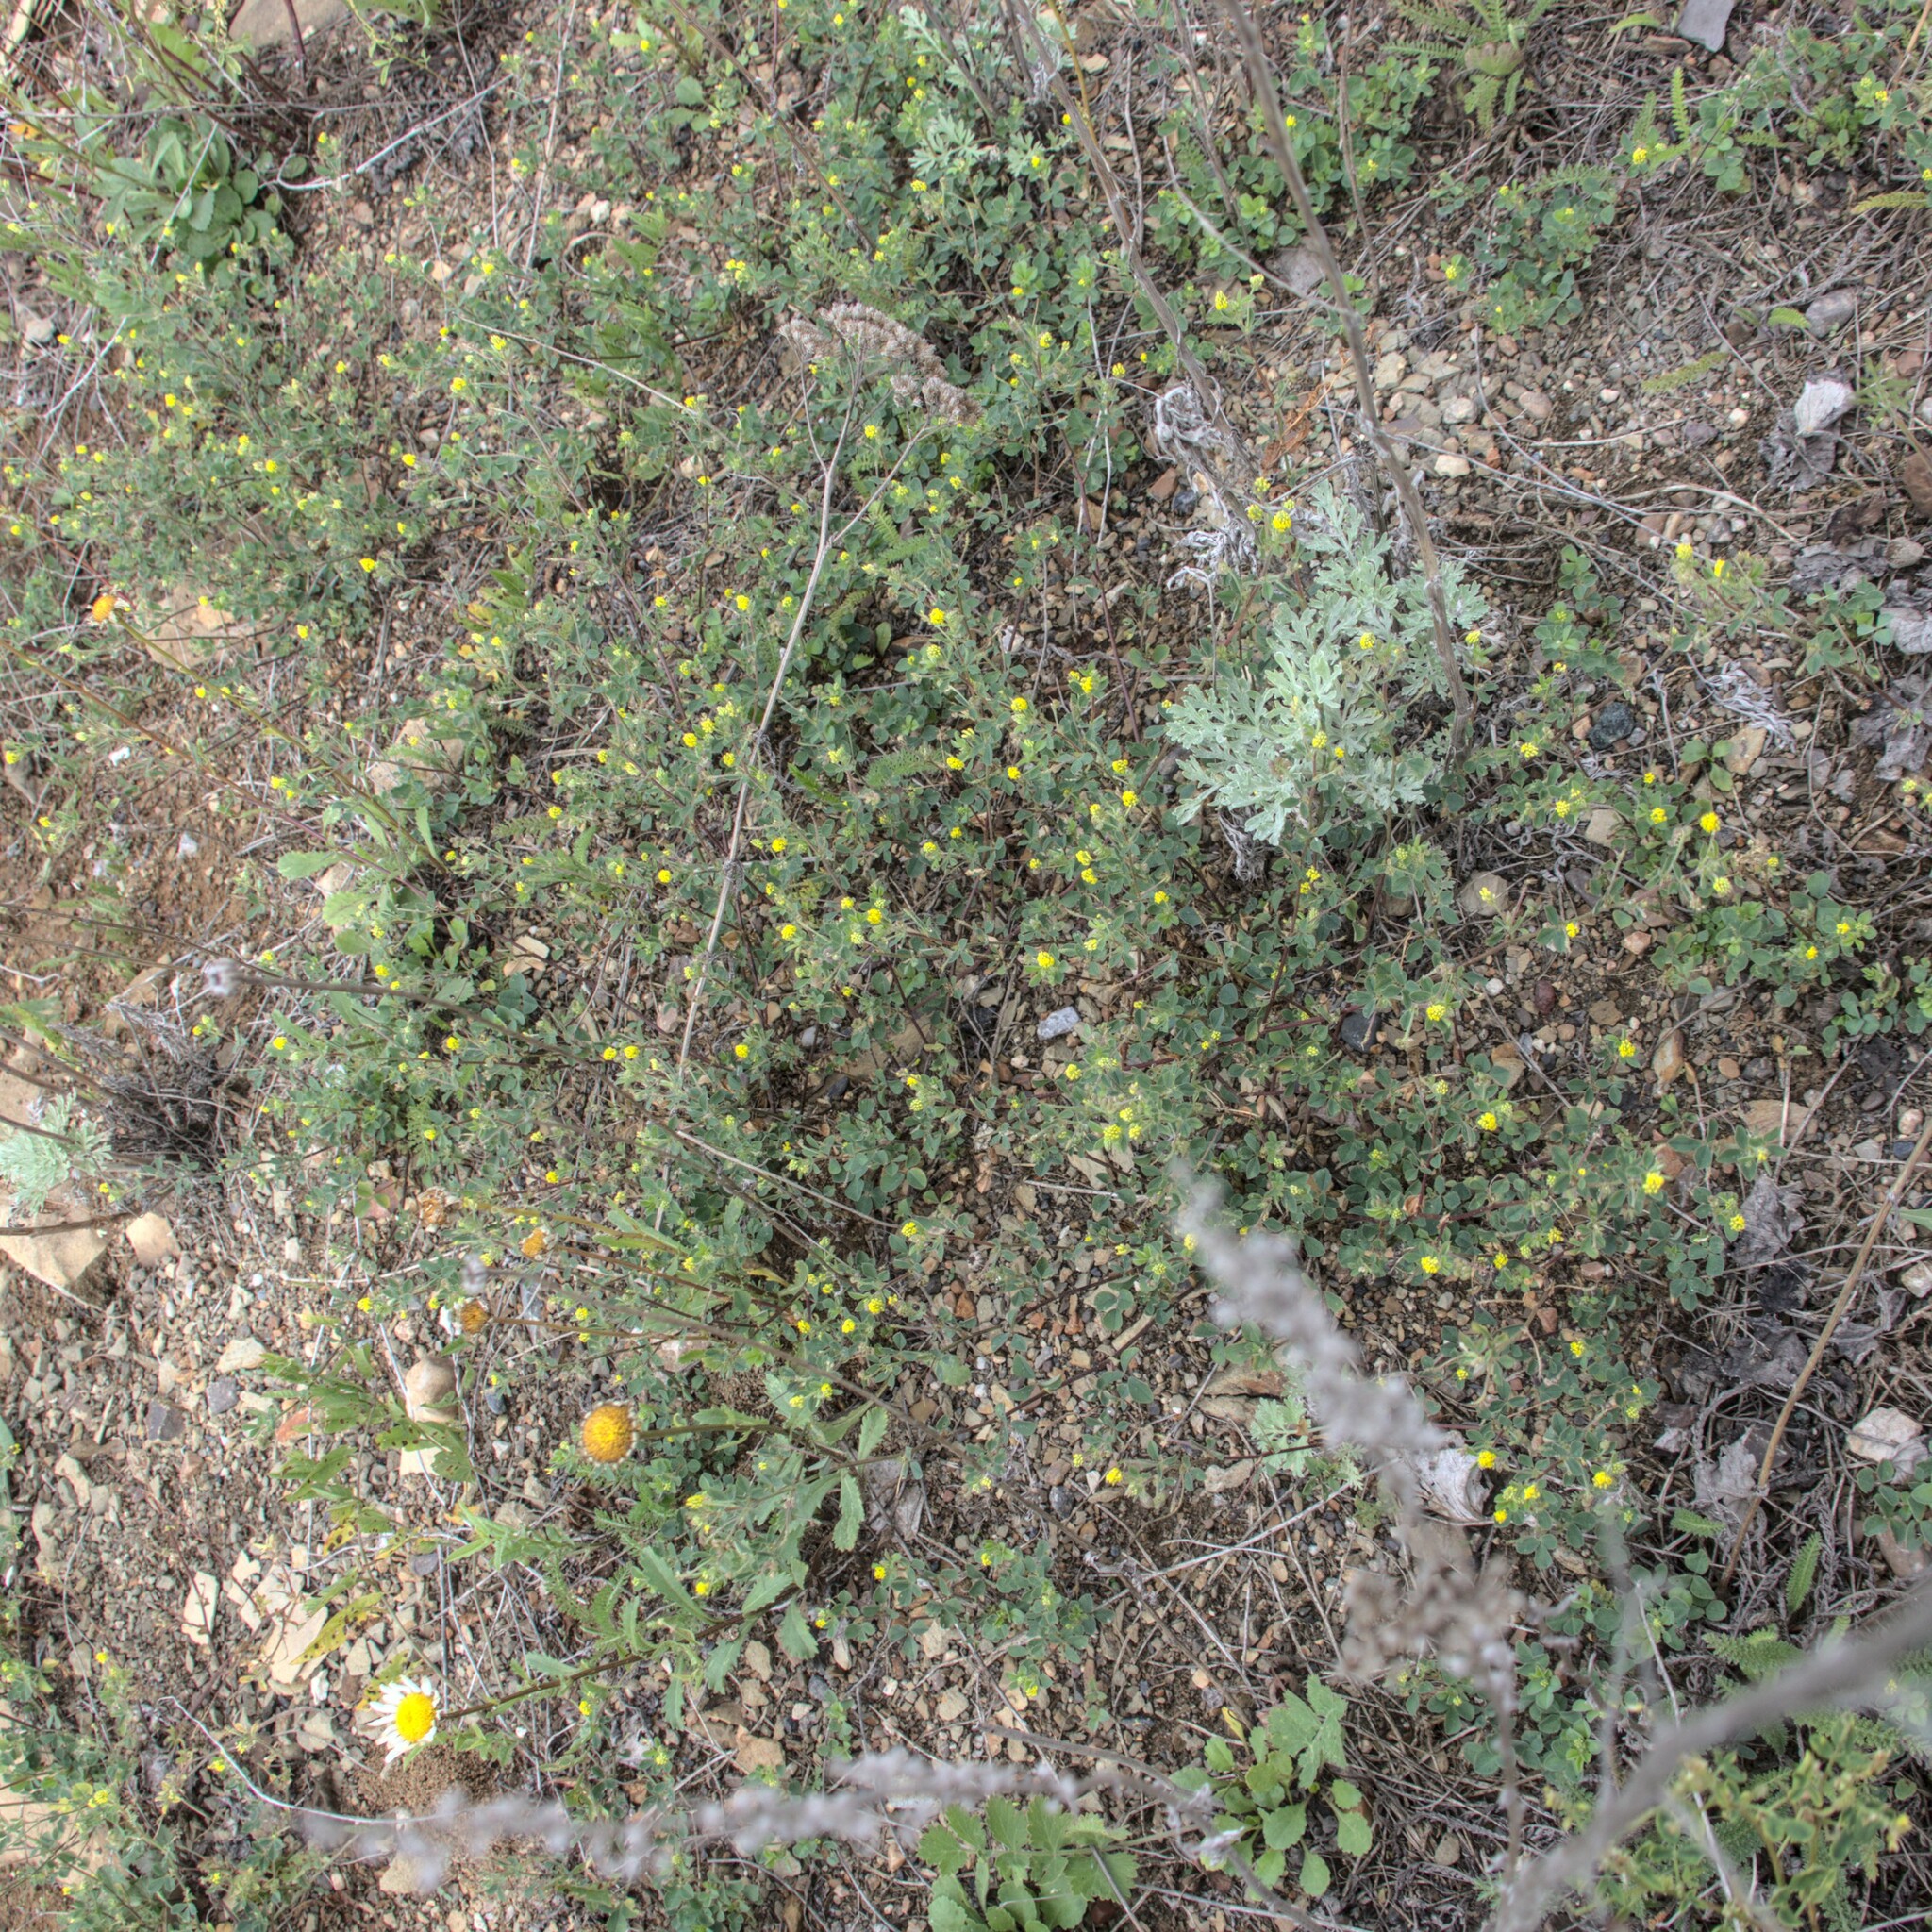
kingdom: Plantae
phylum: Tracheophyta
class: Magnoliopsida
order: Fabales
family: Fabaceae
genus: Medicago
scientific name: Medicago lupulina
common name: Black medick
